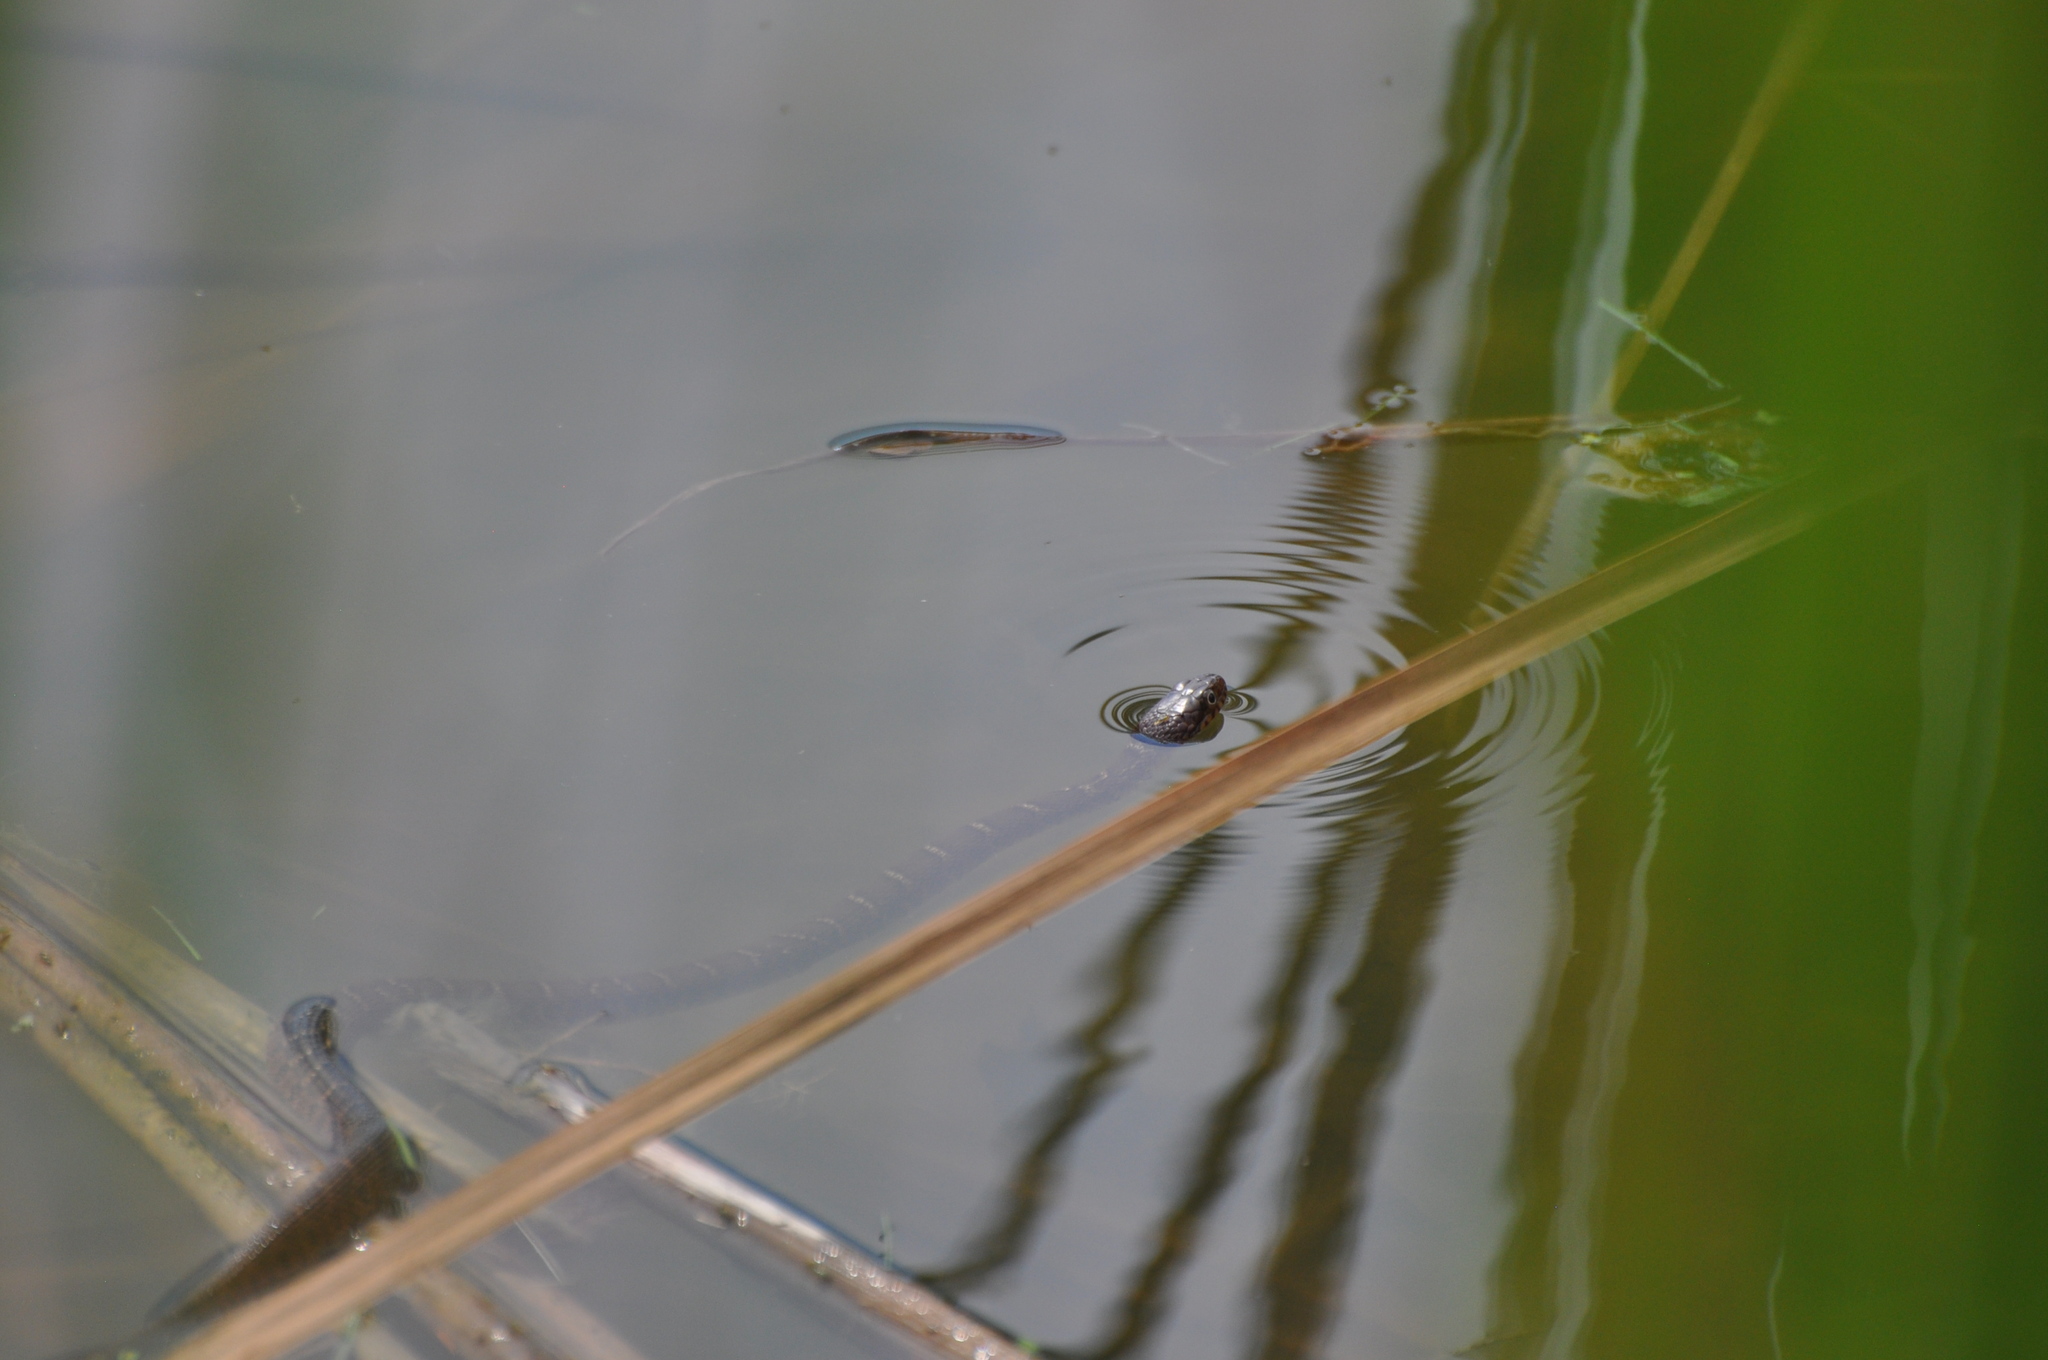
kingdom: Animalia
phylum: Chordata
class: Squamata
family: Colubridae
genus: Nerodia
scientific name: Nerodia erythrogaster
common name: Plainbelly water snake
